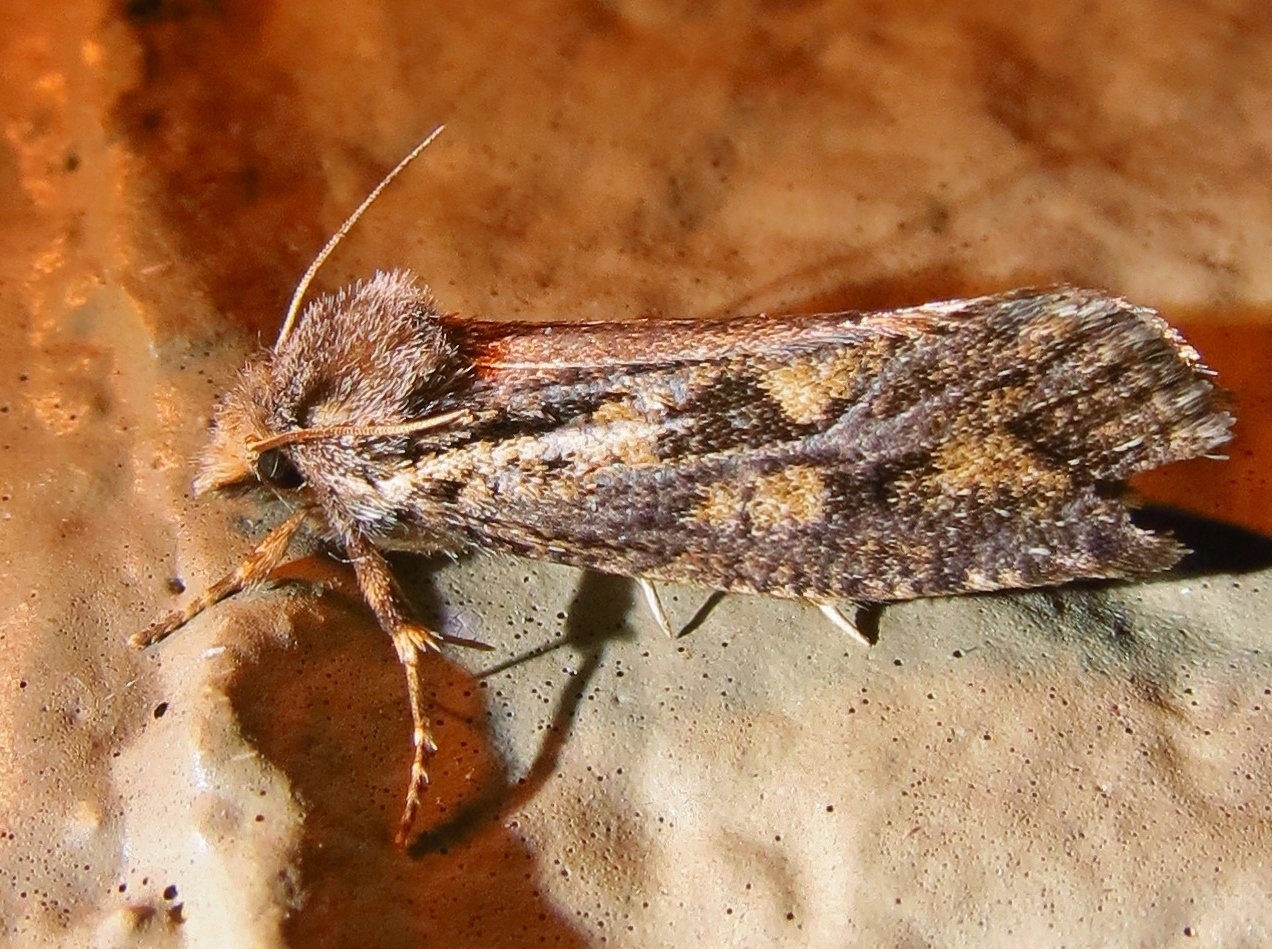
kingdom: Animalia
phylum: Arthropoda
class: Insecta
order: Lepidoptera
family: Tineidae
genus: Acrolophus
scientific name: Acrolophus popeanella
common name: Clemens' grass tubeworm moth
